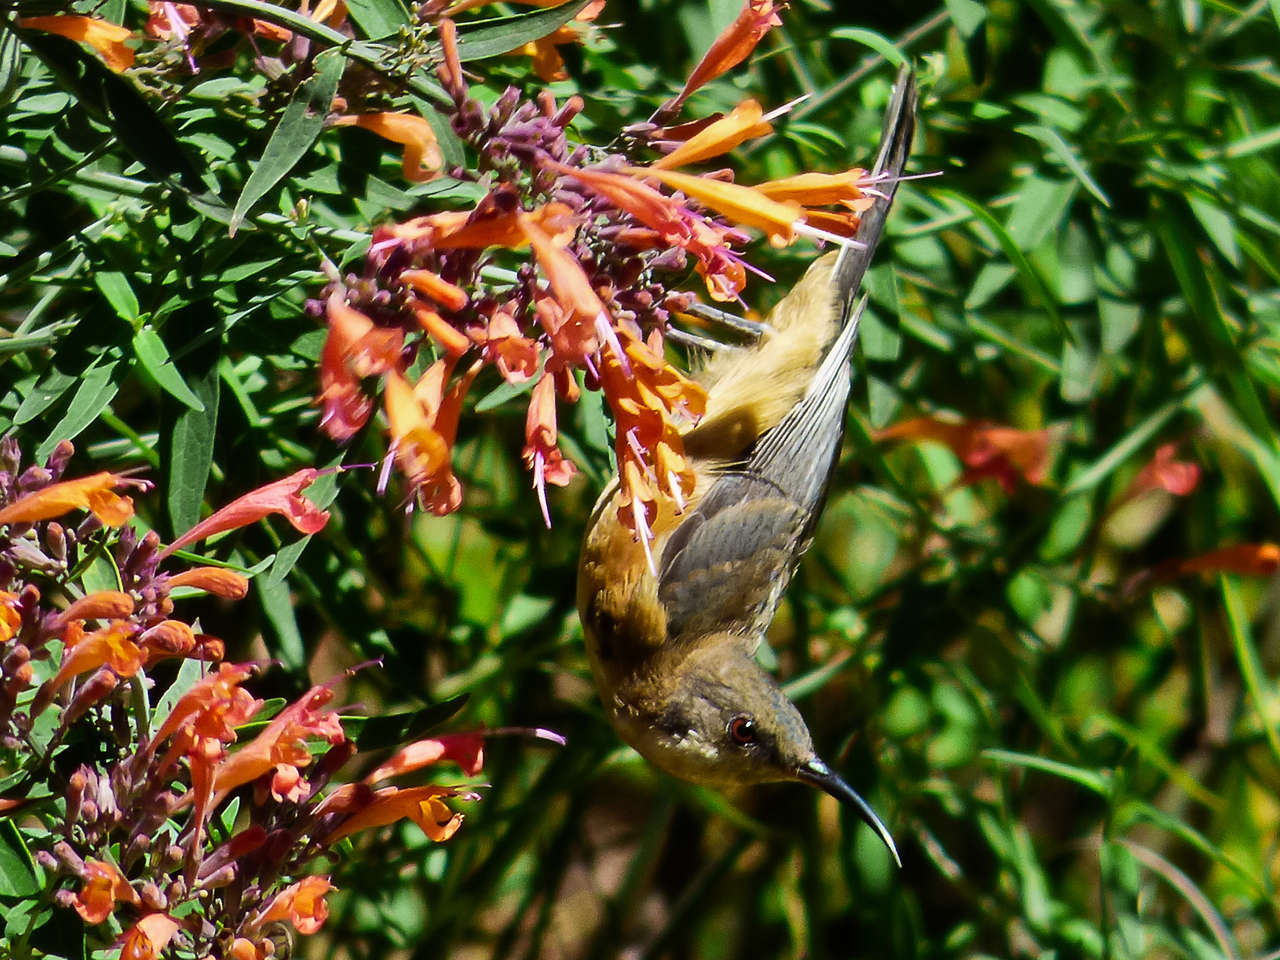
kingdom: Animalia
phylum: Chordata
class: Aves
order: Passeriformes
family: Meliphagidae
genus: Acanthorhynchus
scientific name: Acanthorhynchus tenuirostris
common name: Eastern spinebill
